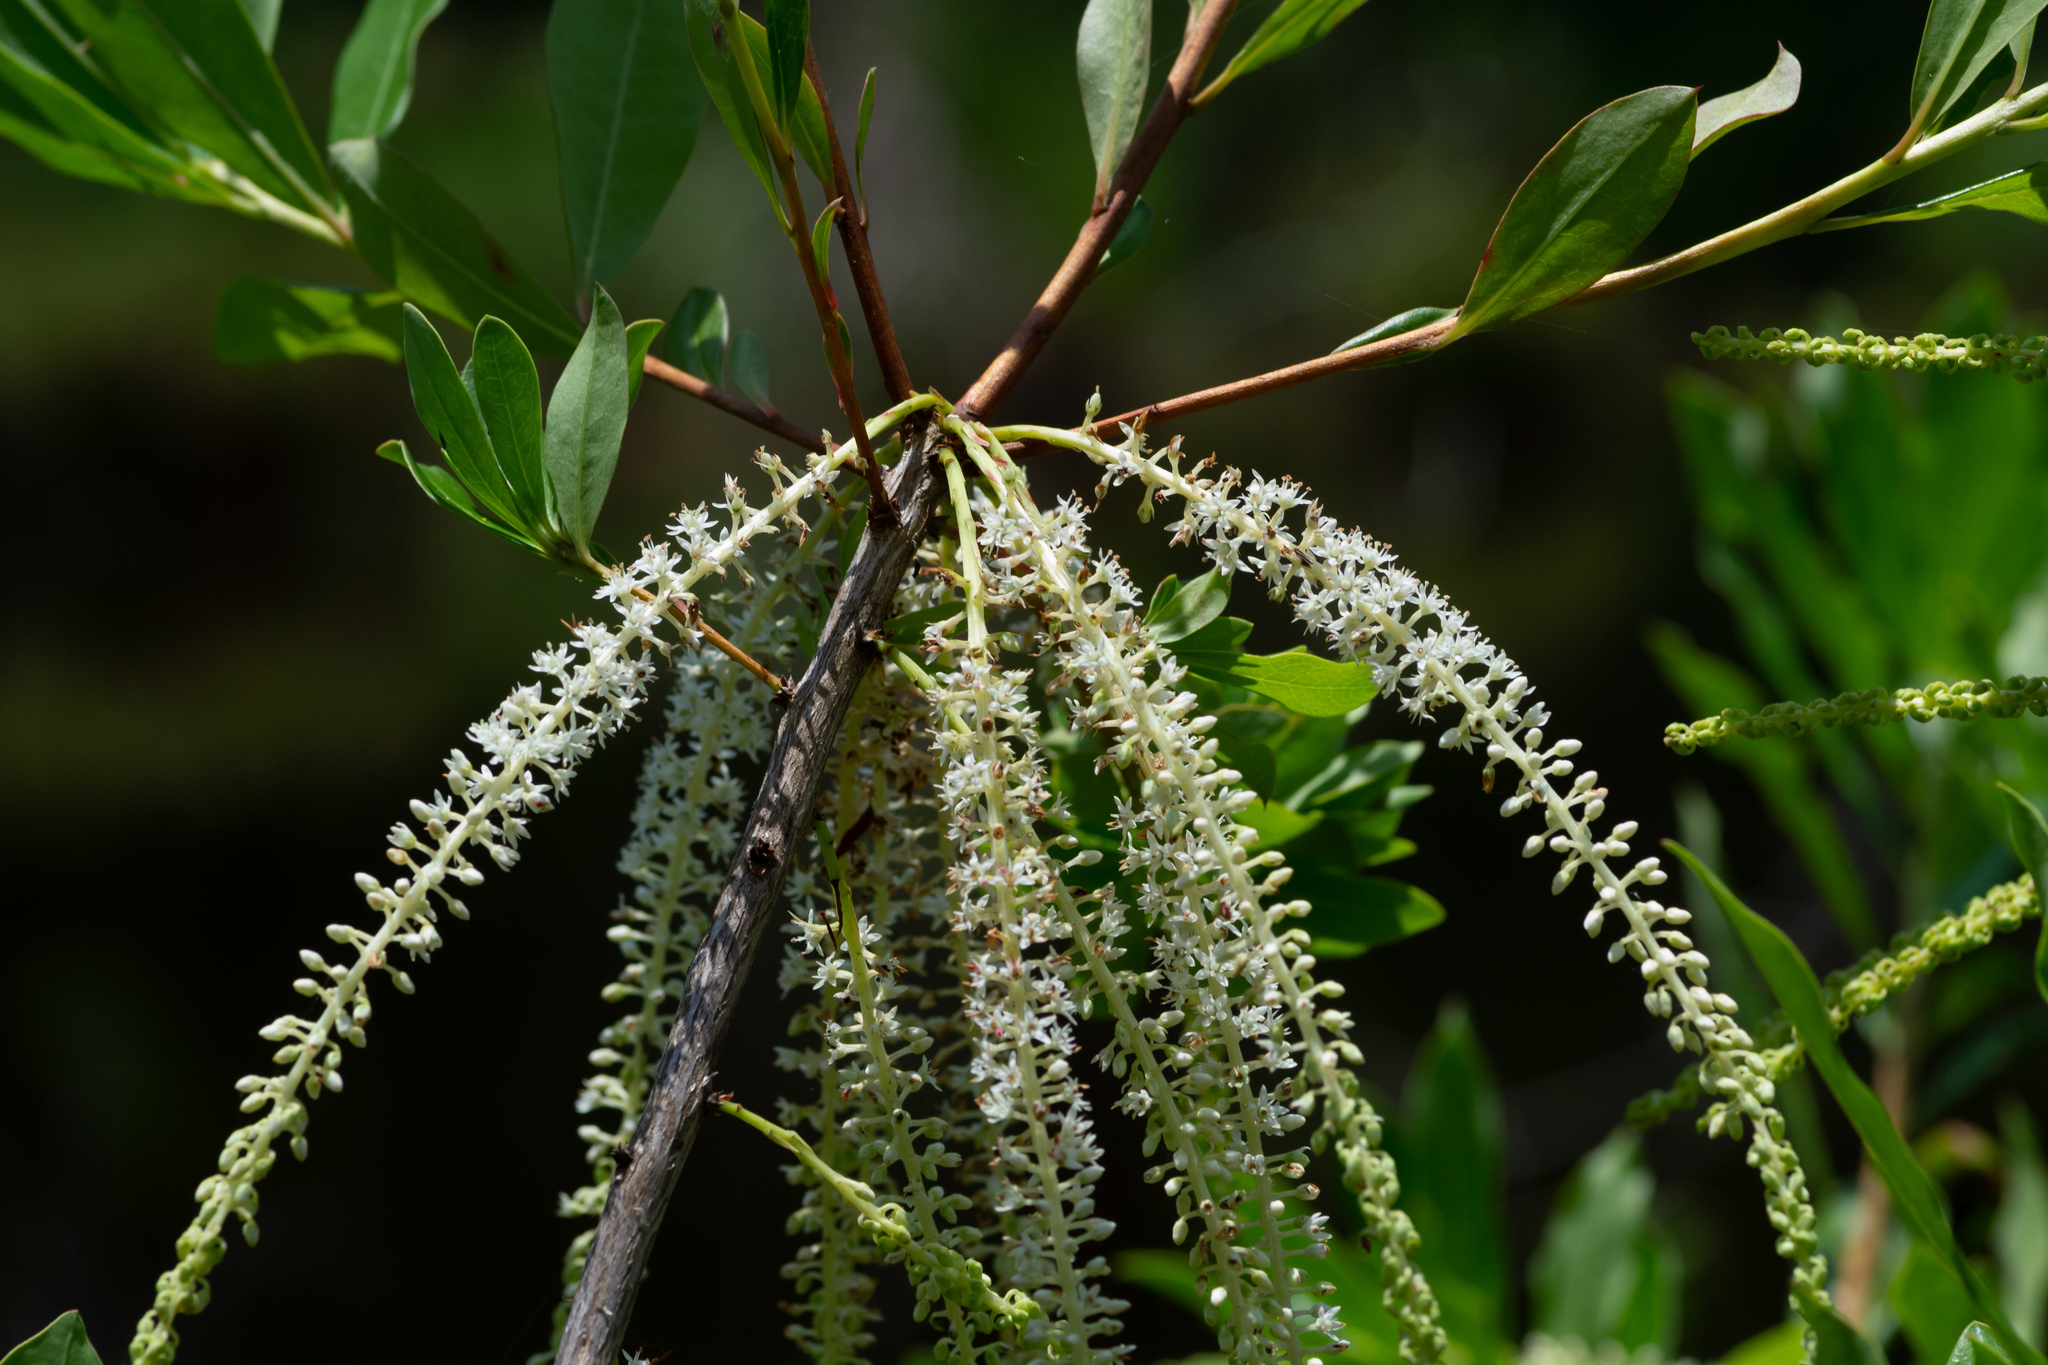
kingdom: Plantae
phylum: Tracheophyta
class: Magnoliopsida
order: Ericales
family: Cyrillaceae
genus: Cyrilla
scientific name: Cyrilla racemiflora
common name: Black titi
